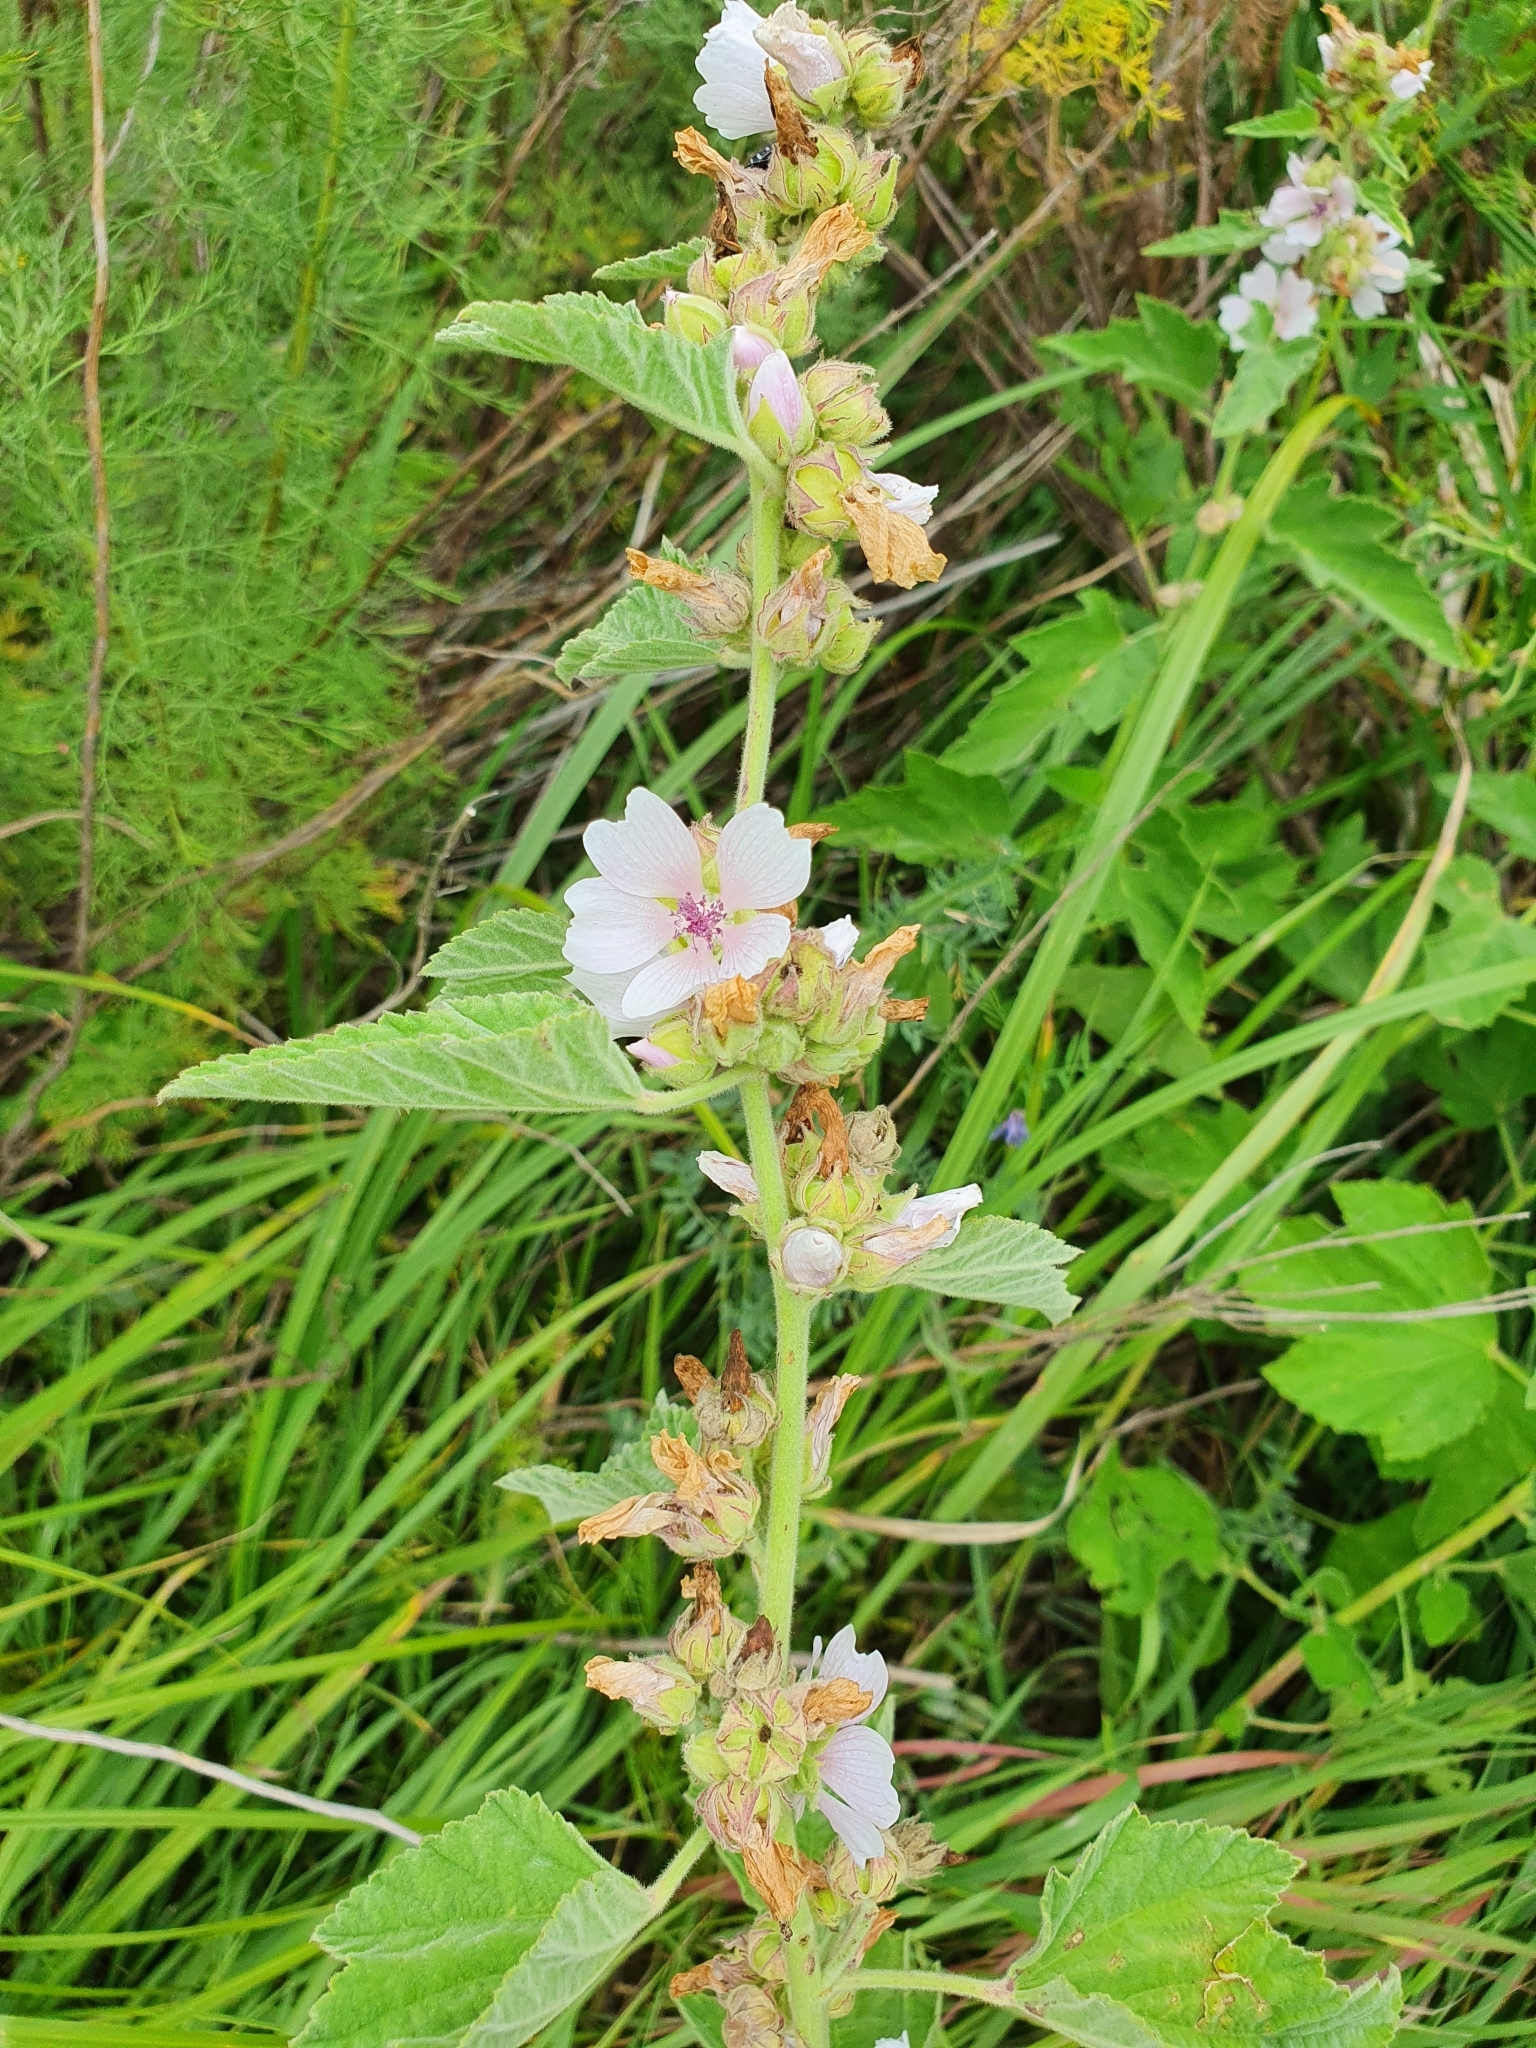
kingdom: Plantae
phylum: Tracheophyta
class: Magnoliopsida
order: Malvales
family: Malvaceae
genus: Althaea
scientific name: Althaea officinalis
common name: Marsh-mallow
